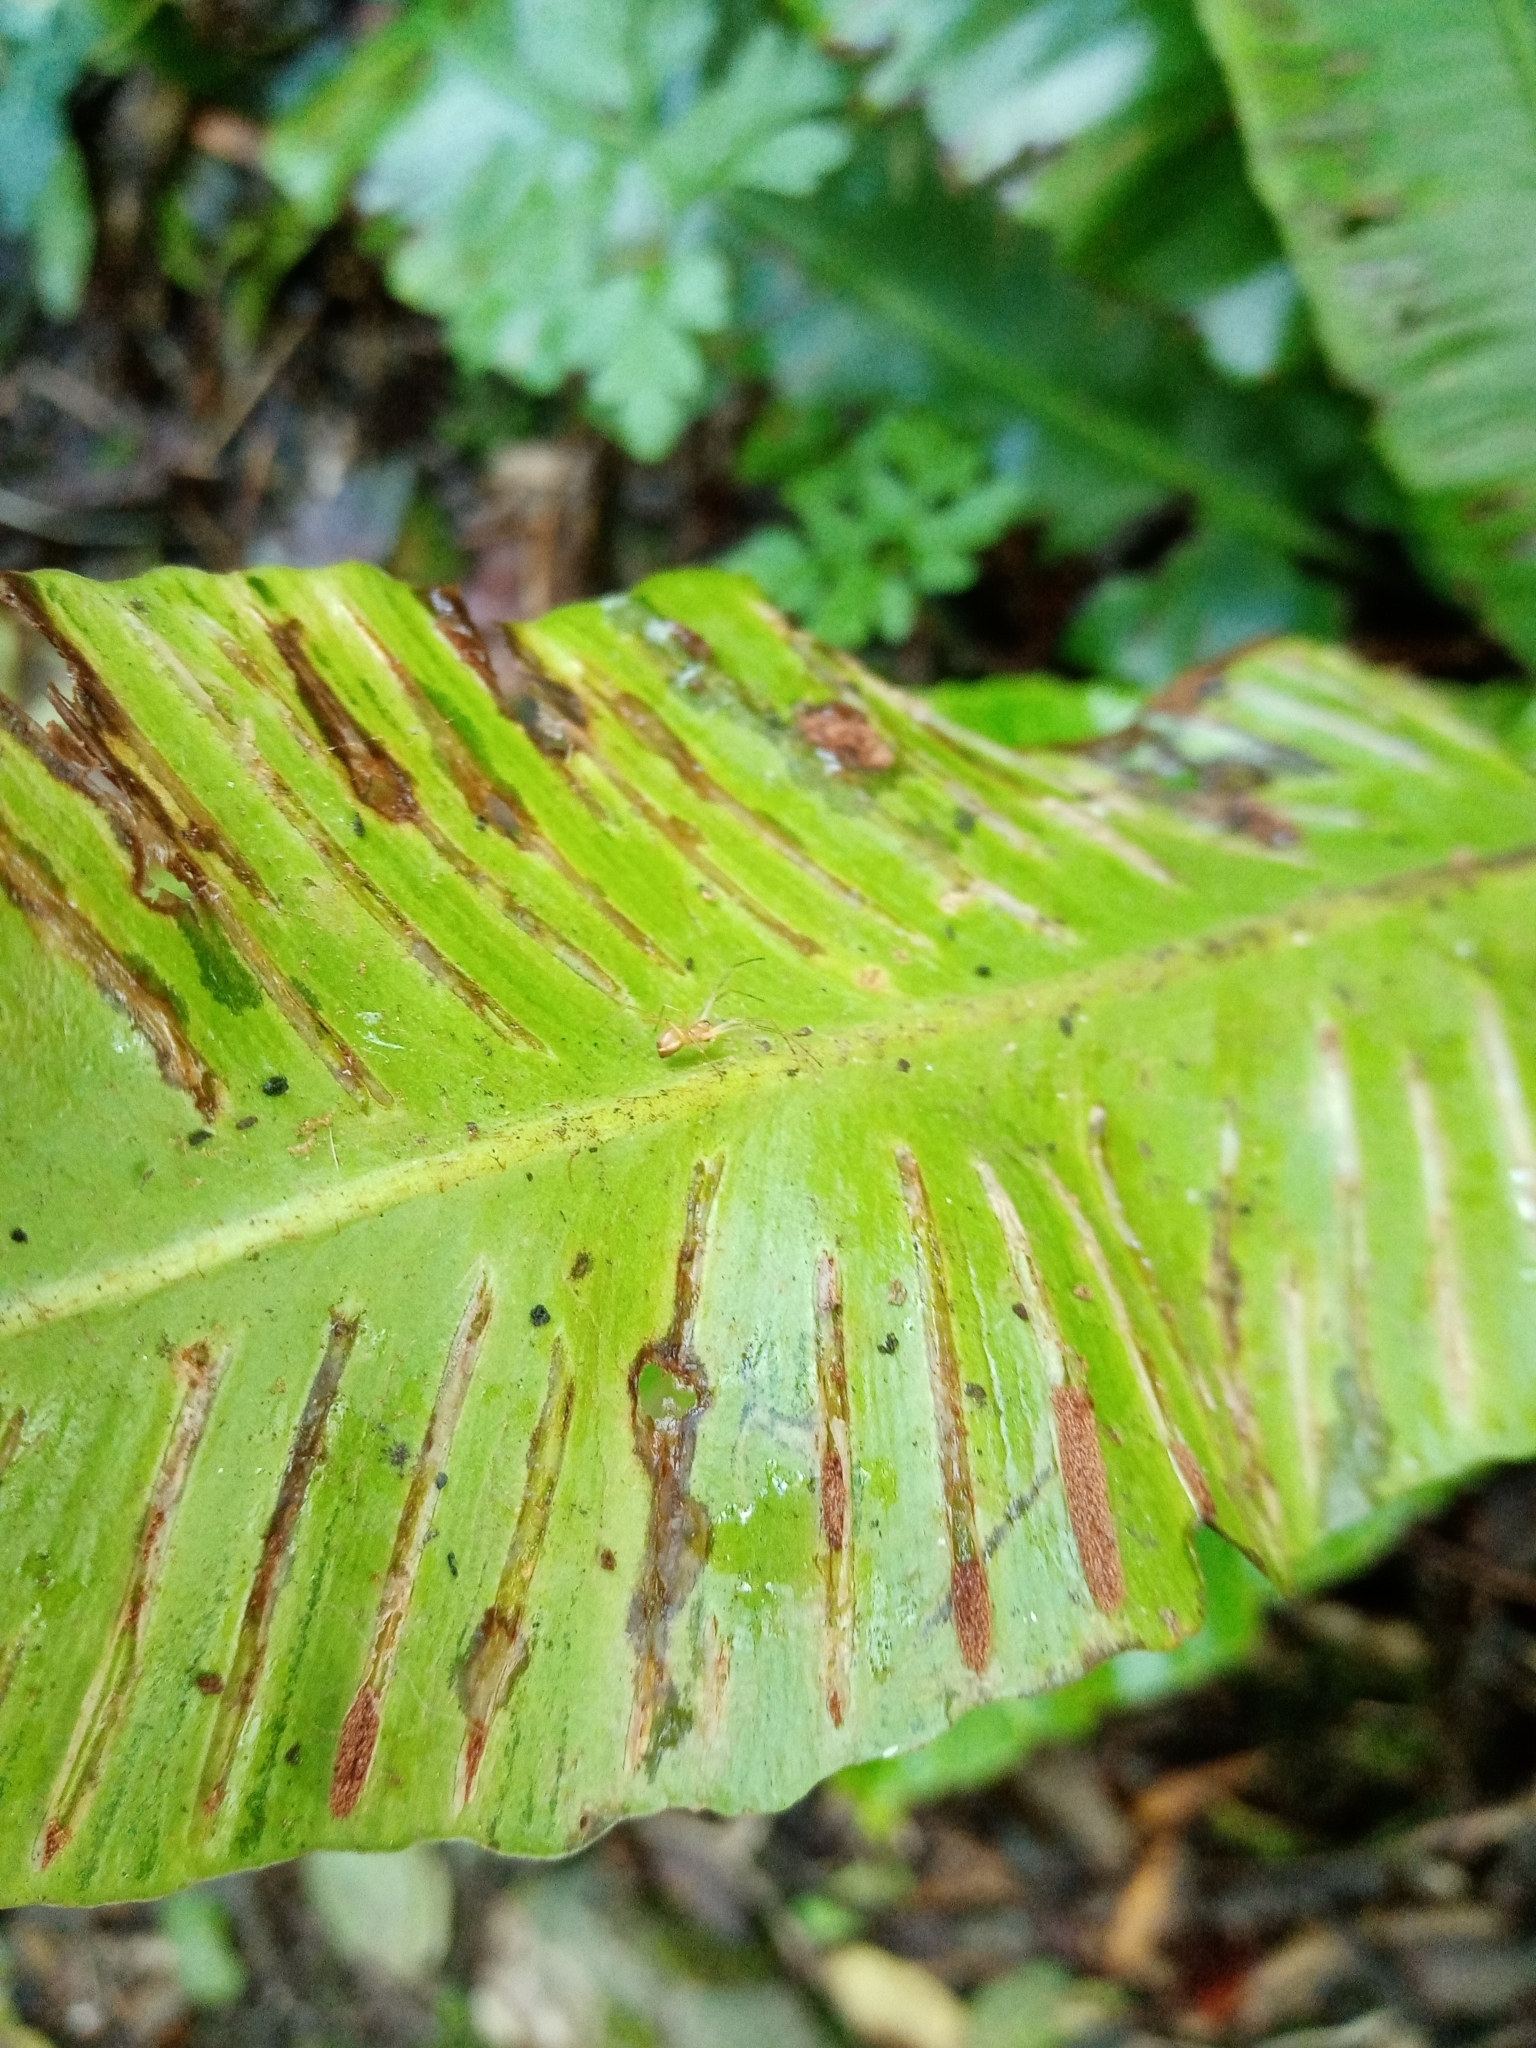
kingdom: Plantae
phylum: Tracheophyta
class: Polypodiopsida
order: Polypodiales
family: Aspleniaceae
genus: Asplenium
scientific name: Asplenium scolopendrium
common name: Hart's-tongue fern
